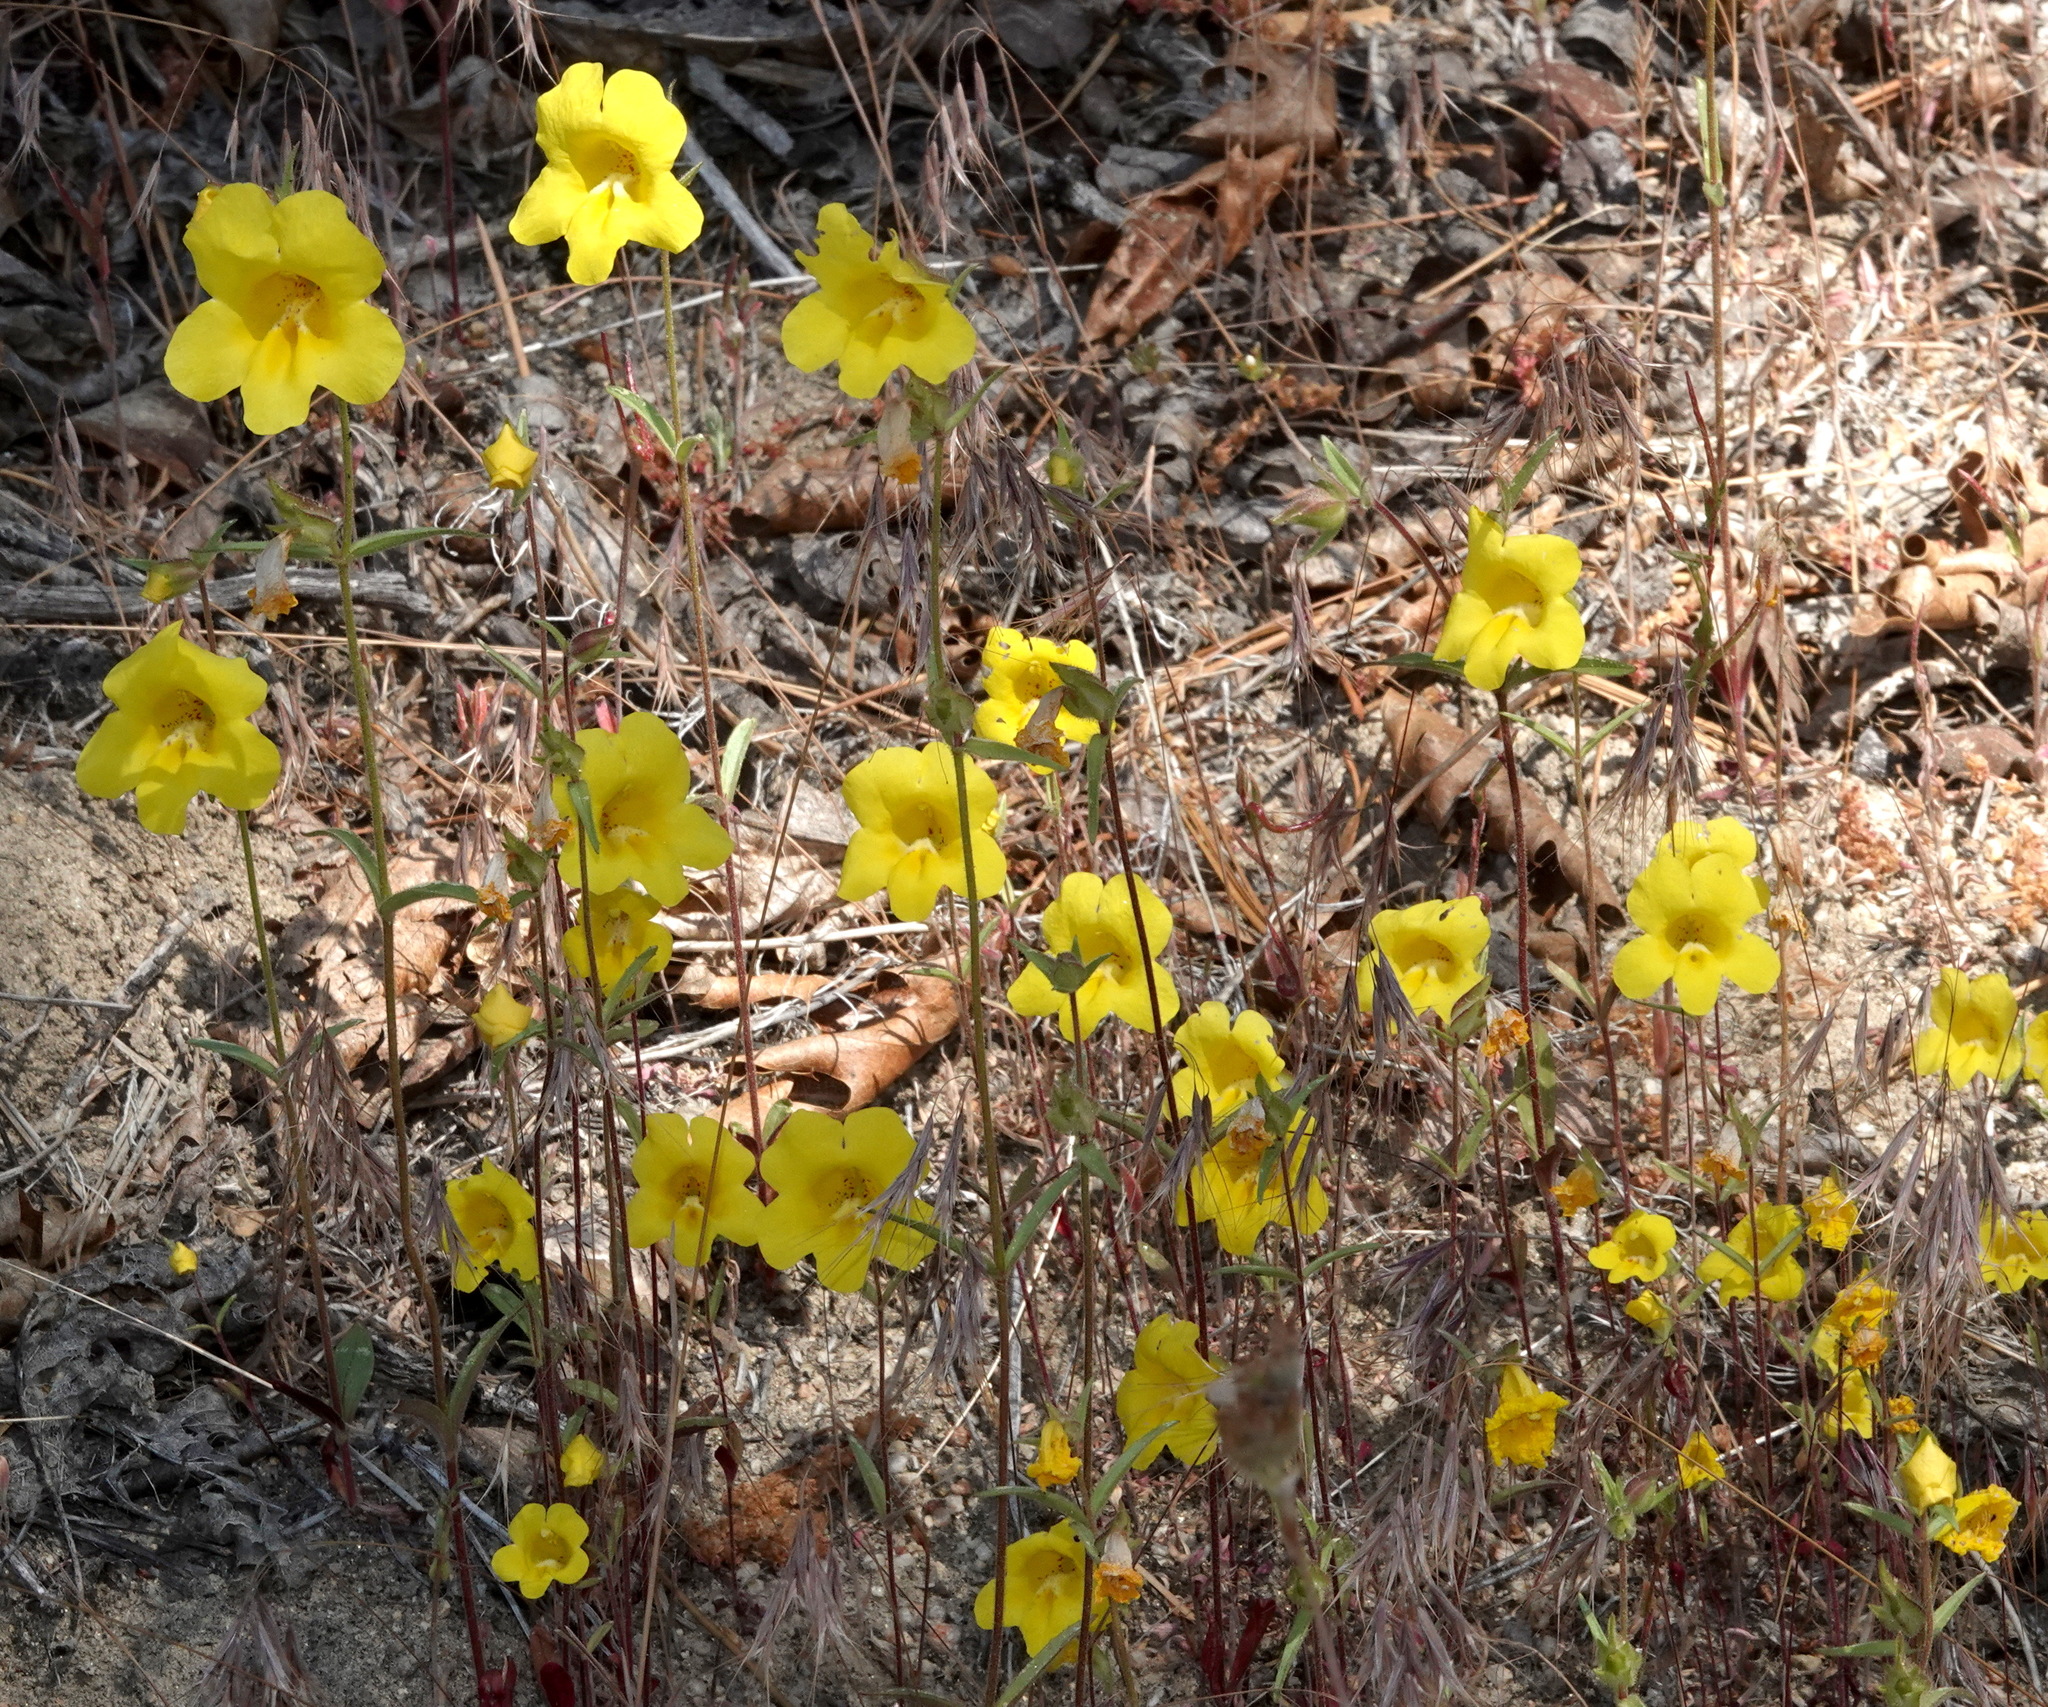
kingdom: Plantae
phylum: Tracheophyta
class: Magnoliopsida
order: Lamiales
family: Phrymaceae
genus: Diplacus
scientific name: Diplacus brevipes
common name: Wide-throat yellow monkey-flower
